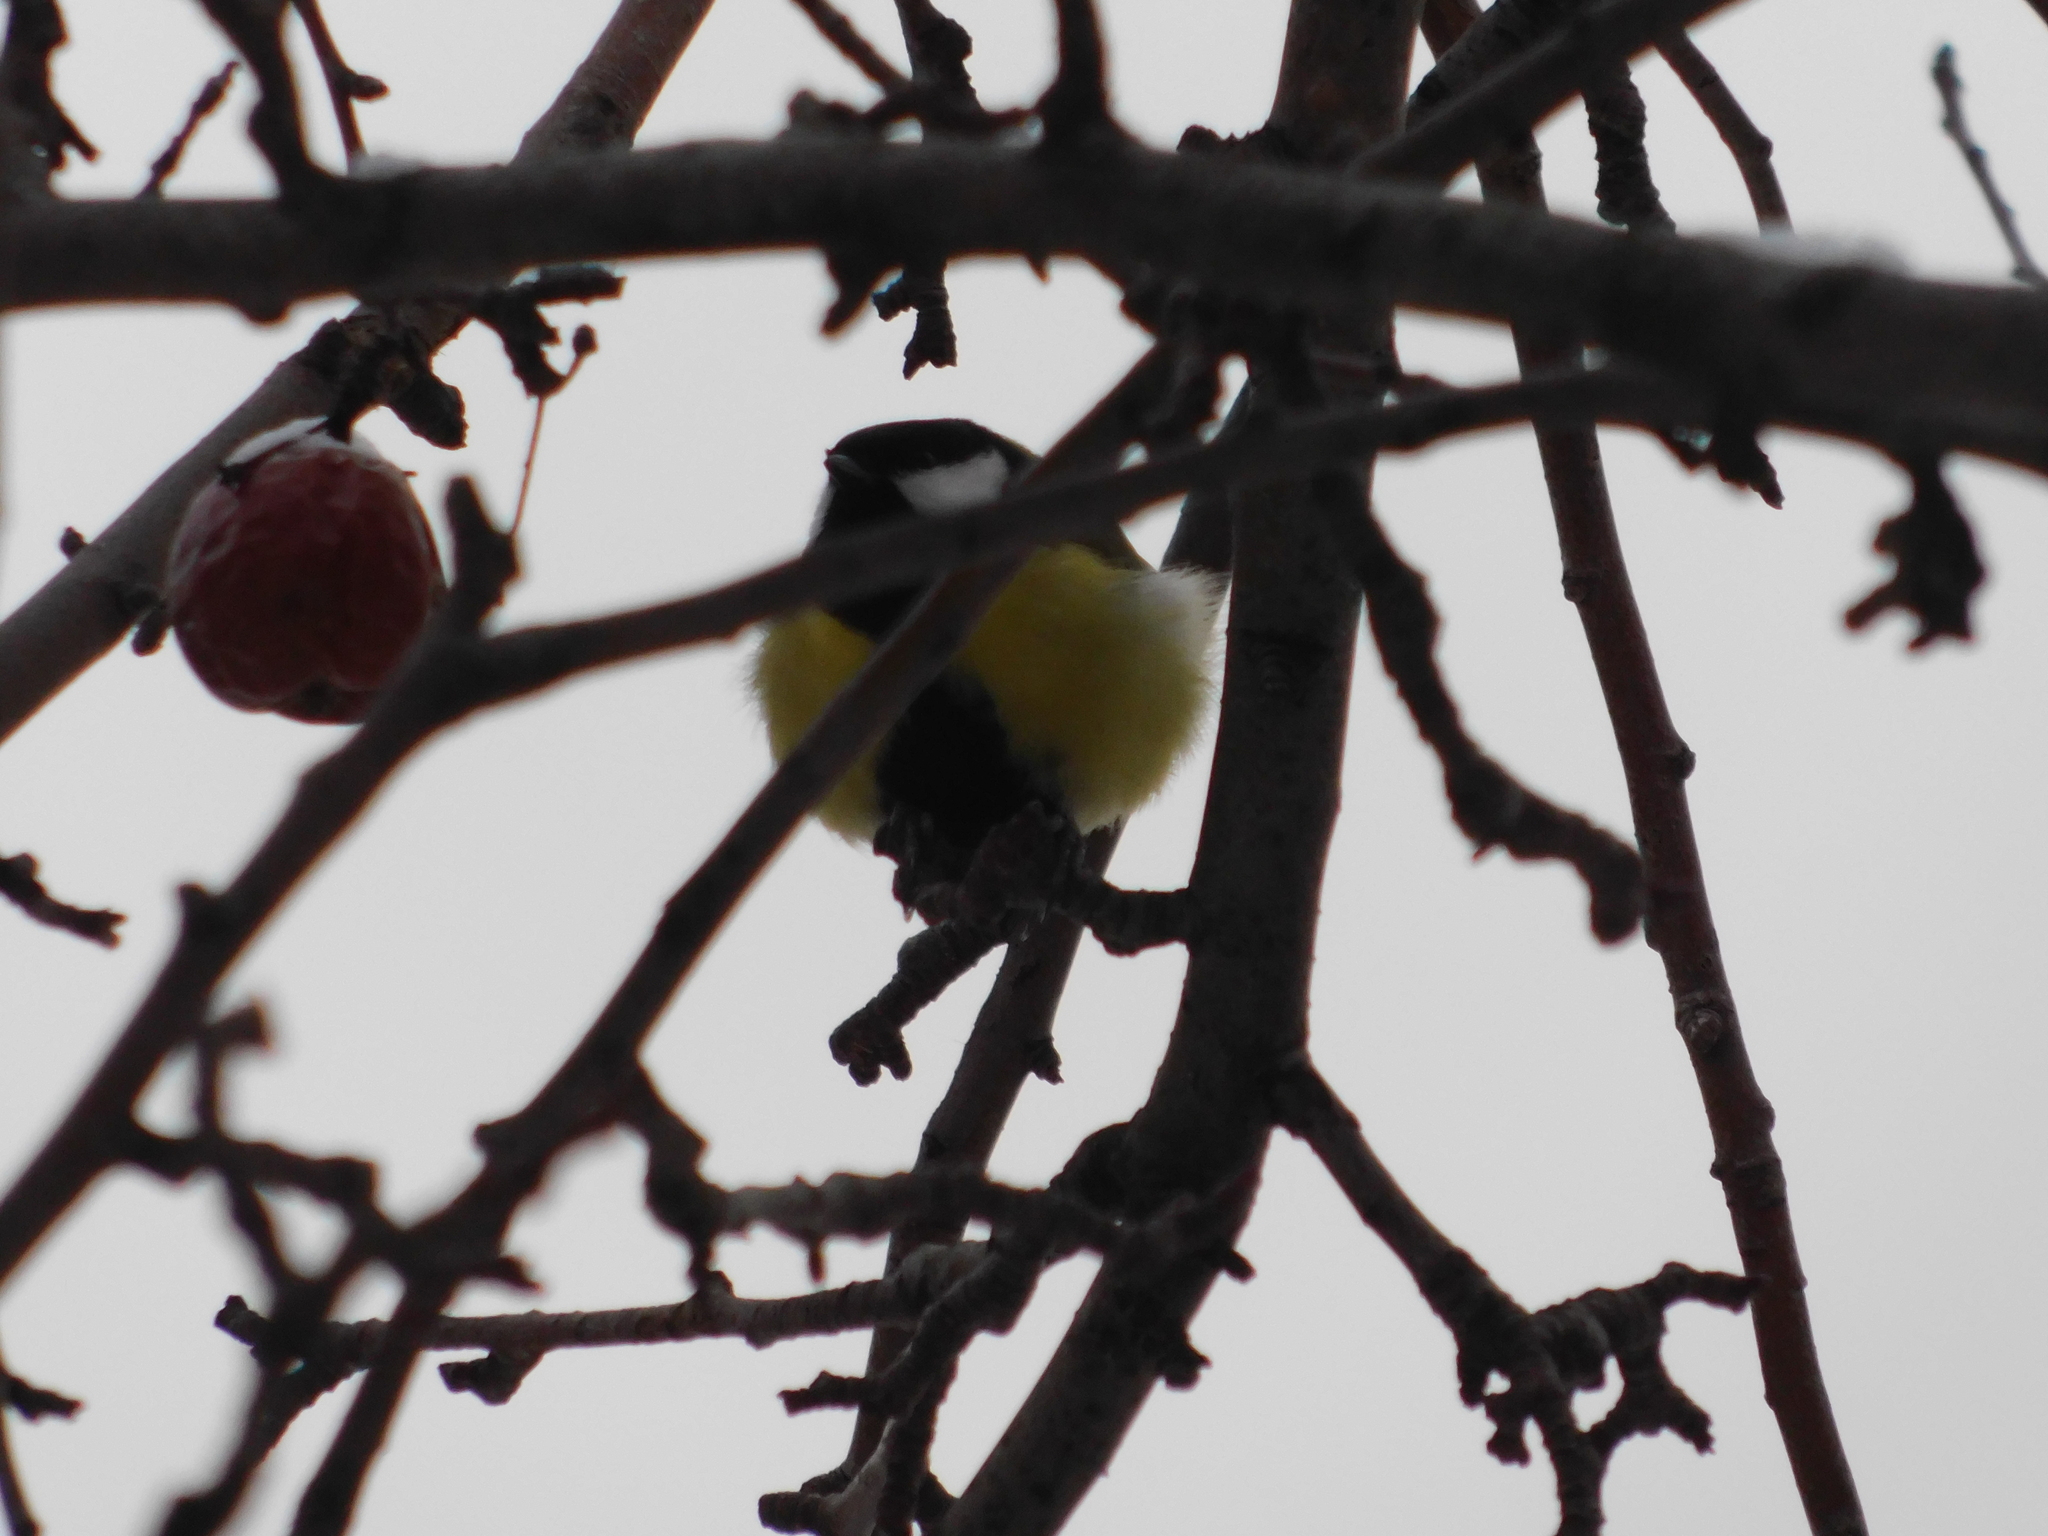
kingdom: Animalia
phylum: Chordata
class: Aves
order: Passeriformes
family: Paridae
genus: Parus
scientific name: Parus major
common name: Great tit
